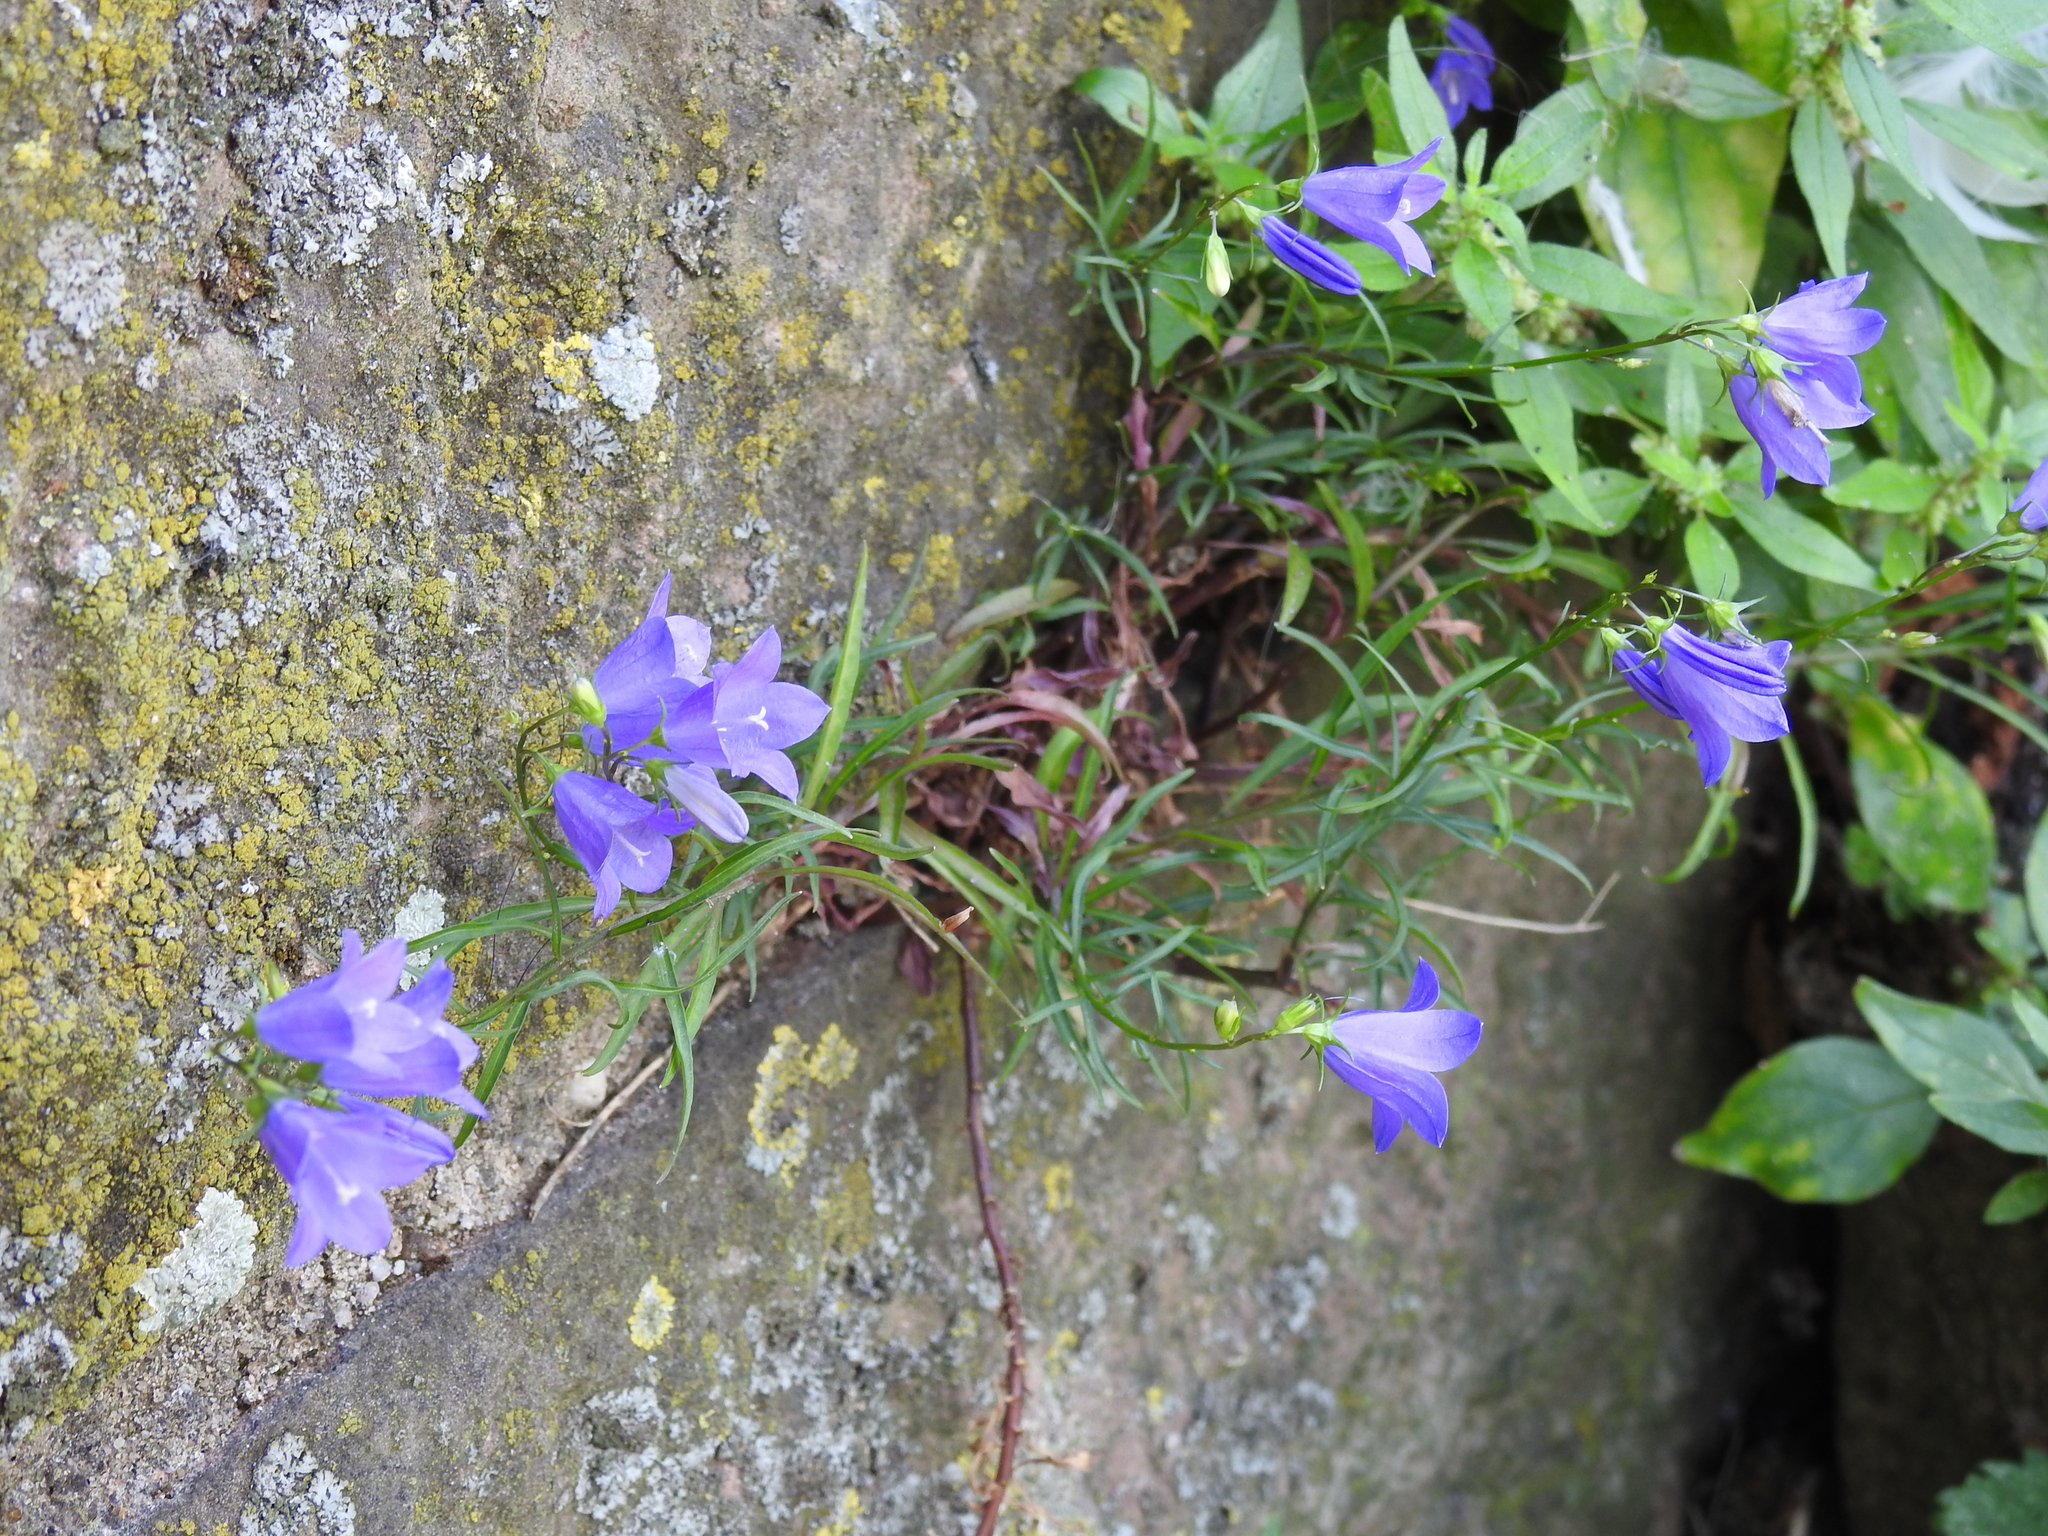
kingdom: Plantae
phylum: Tracheophyta
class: Magnoliopsida
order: Asterales
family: Campanulaceae
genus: Campanula
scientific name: Campanula rotundifolia
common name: Harebell
